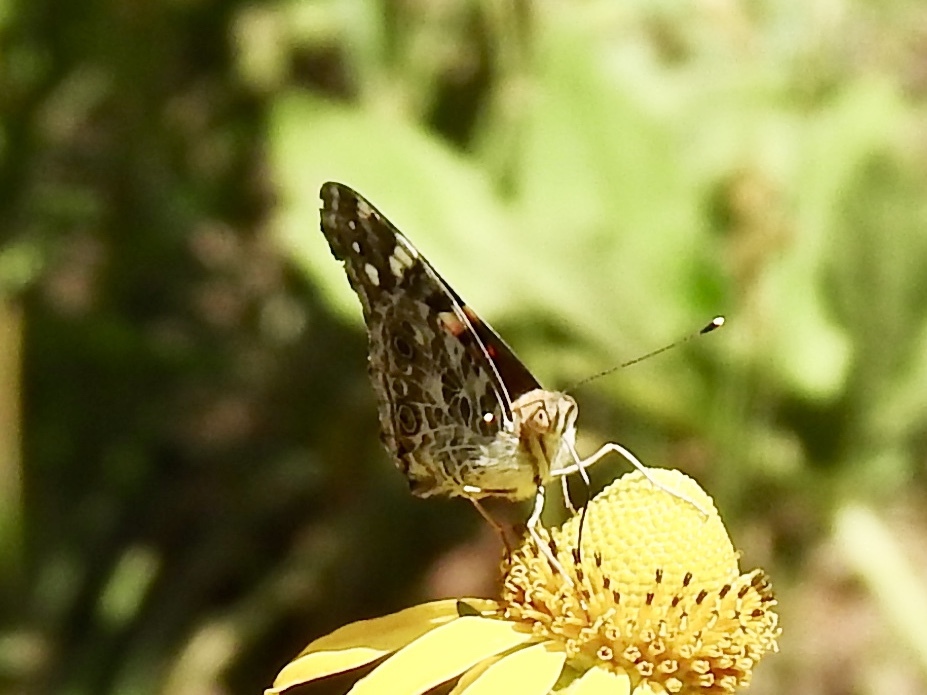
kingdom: Animalia
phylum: Arthropoda
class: Insecta
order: Lepidoptera
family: Nymphalidae
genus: Vanessa
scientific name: Vanessa cardui
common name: Painted lady
